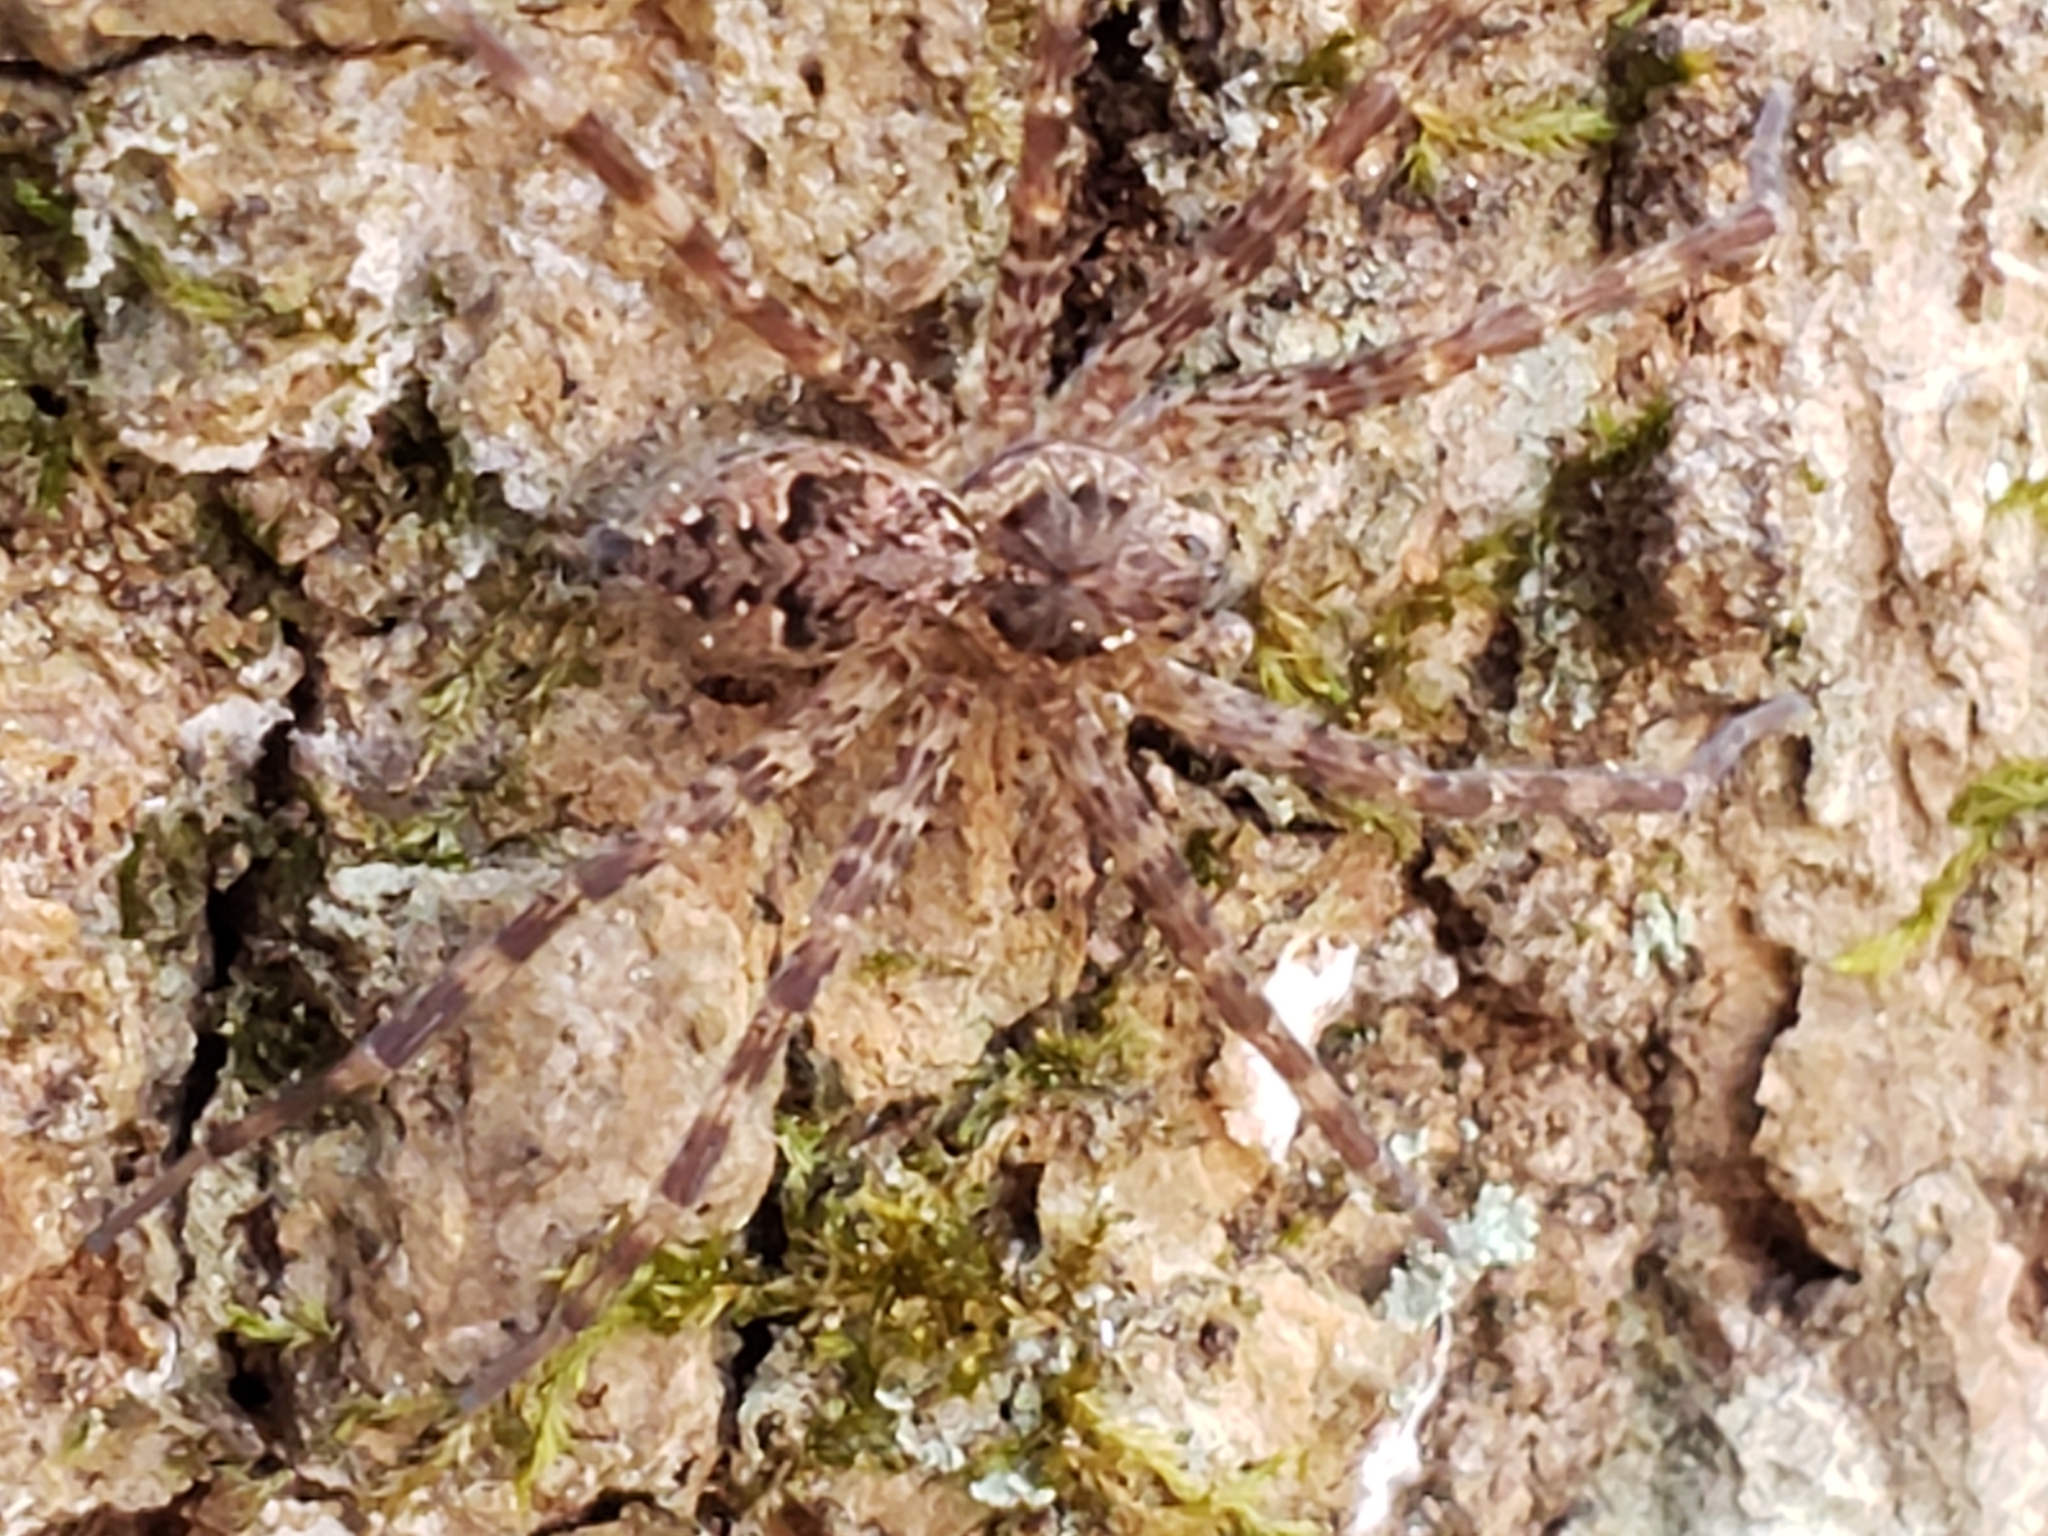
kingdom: Animalia
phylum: Arthropoda
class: Arachnida
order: Araneae
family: Pisauridae
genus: Dolomedes
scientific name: Dolomedes tenebrosus
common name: Dark fishing spider
